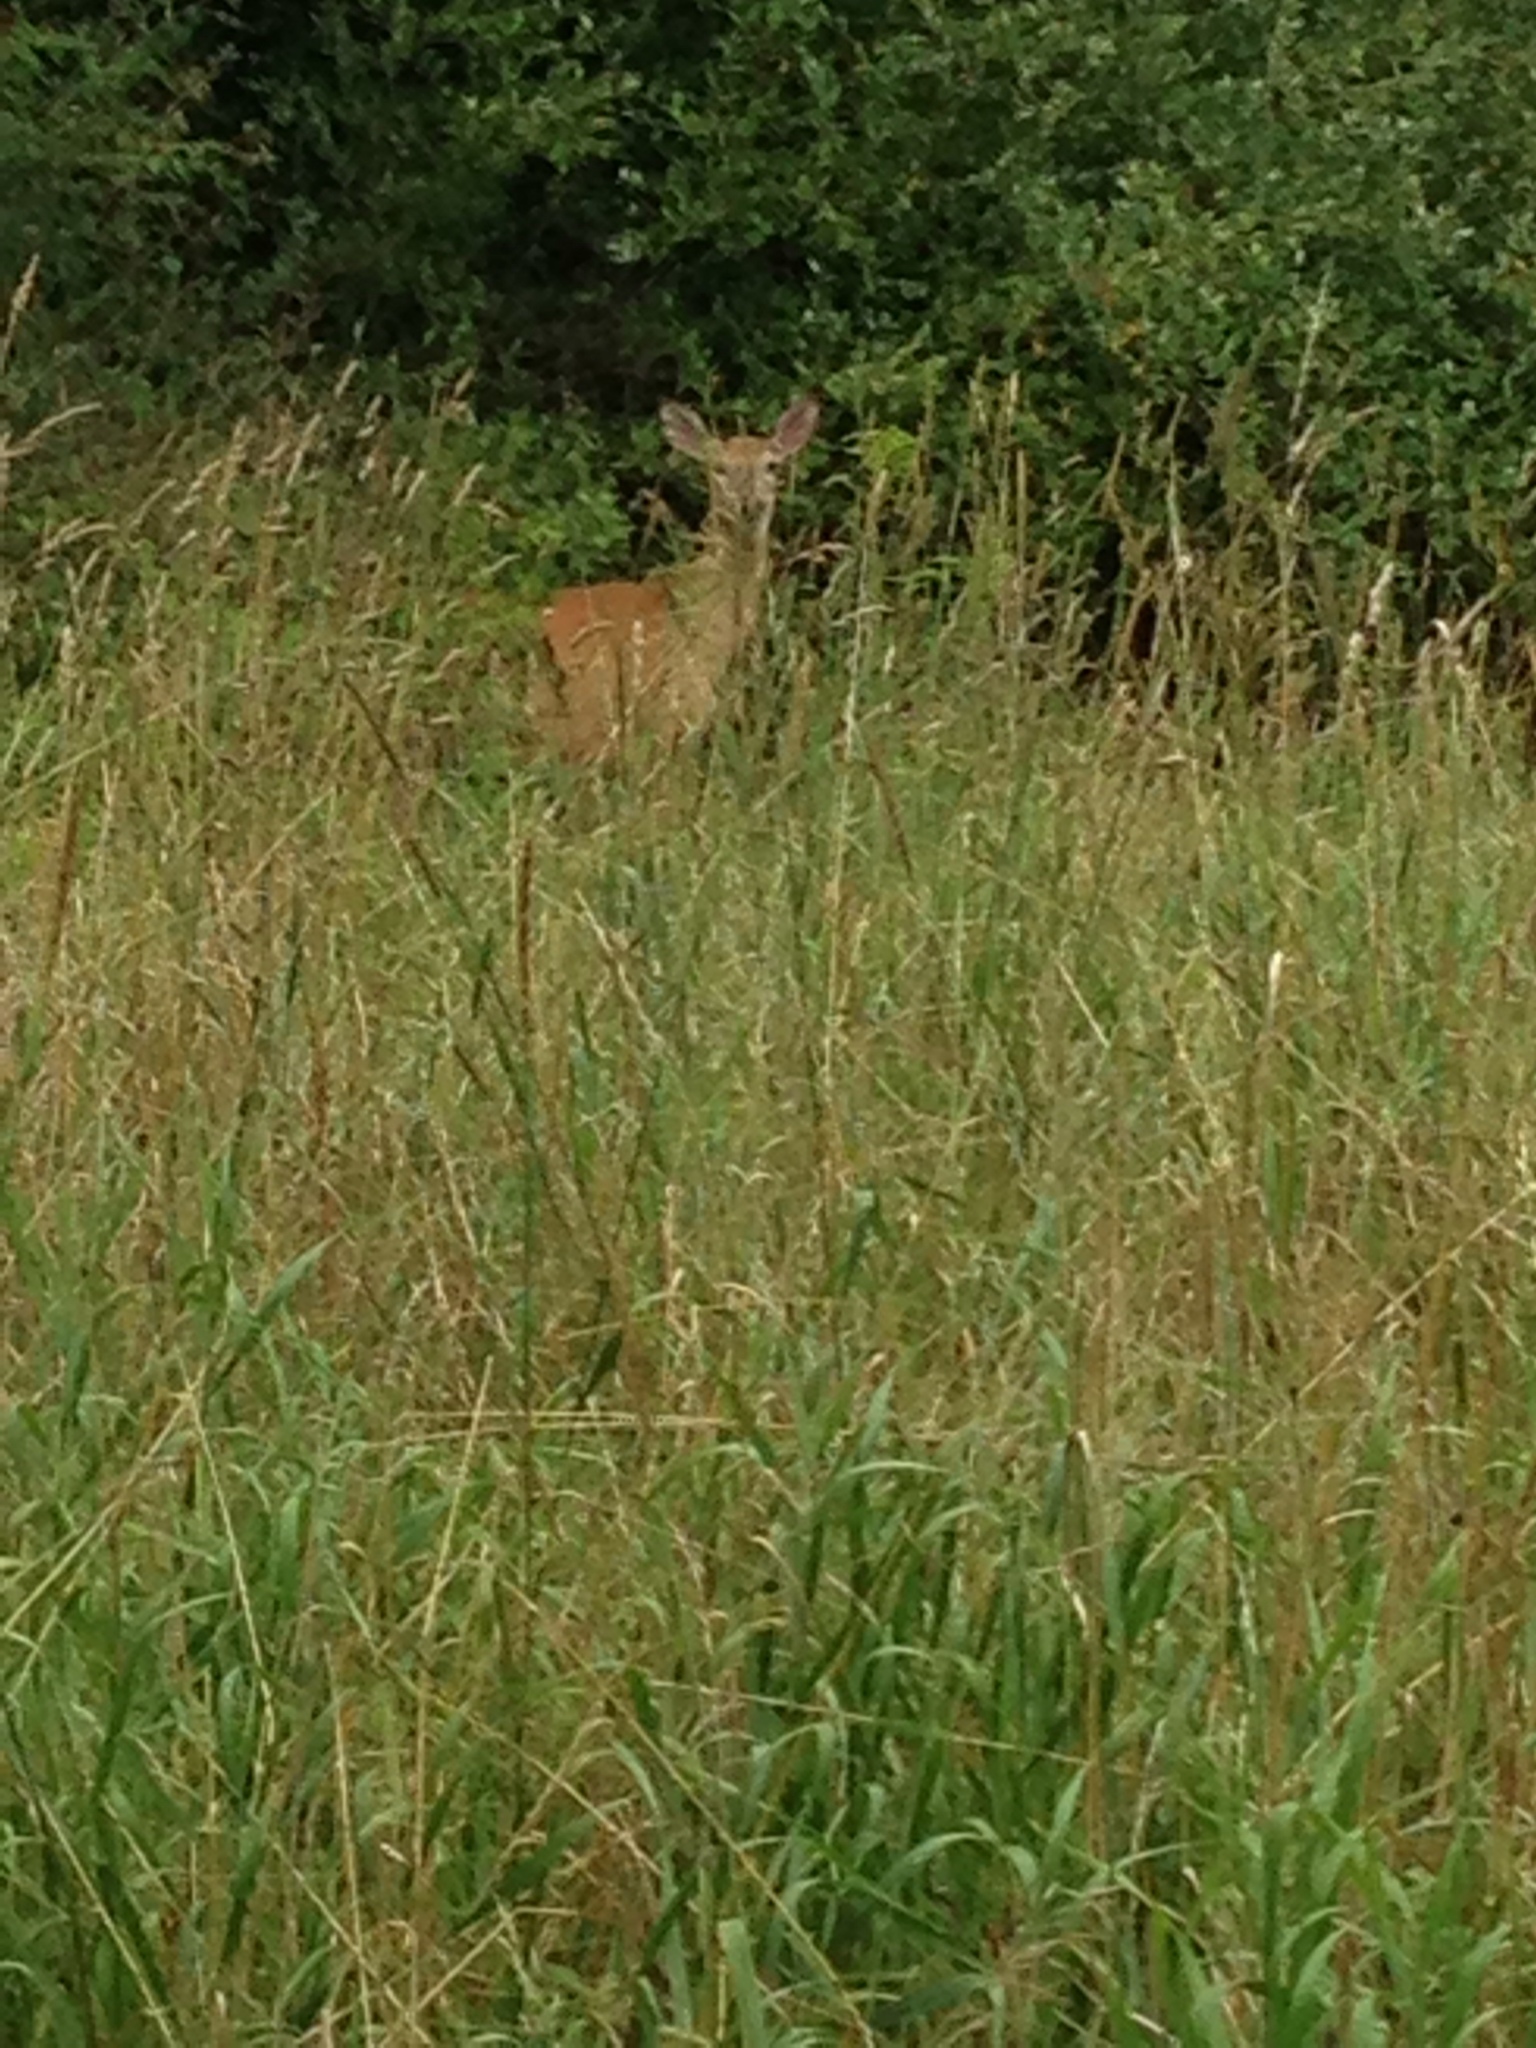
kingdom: Animalia
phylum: Chordata
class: Mammalia
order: Artiodactyla
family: Cervidae
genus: Odocoileus
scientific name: Odocoileus virginianus
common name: White-tailed deer
